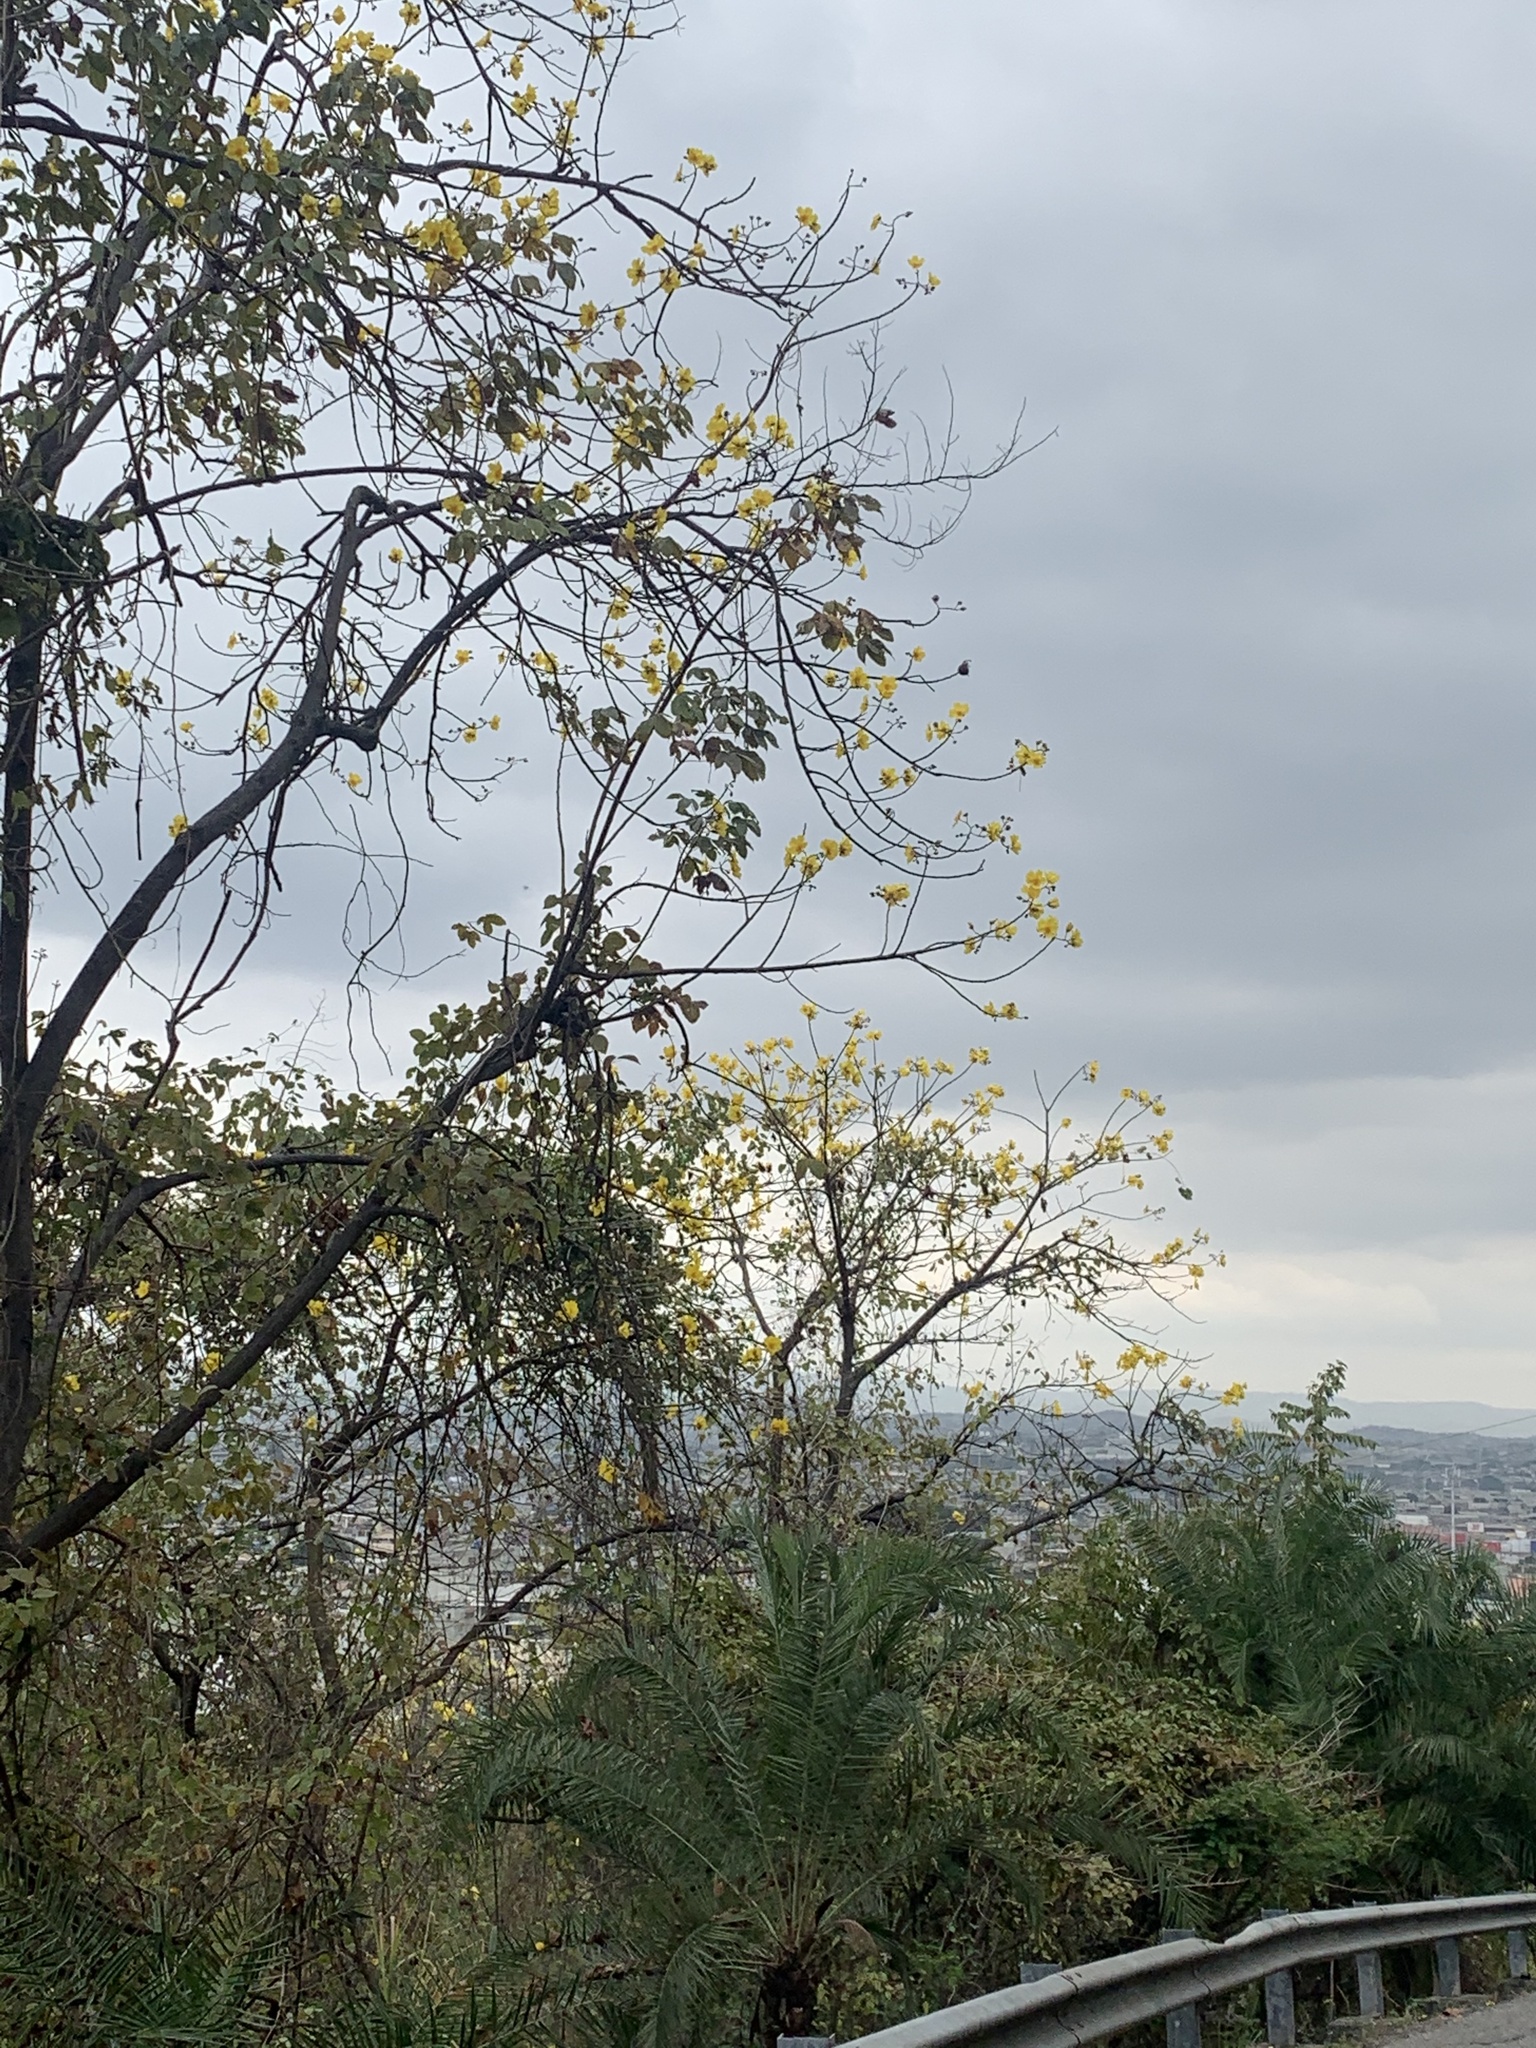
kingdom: Plantae
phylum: Tracheophyta
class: Magnoliopsida
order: Malvales
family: Cochlospermaceae
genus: Cochlospermum
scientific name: Cochlospermum vitifolium
